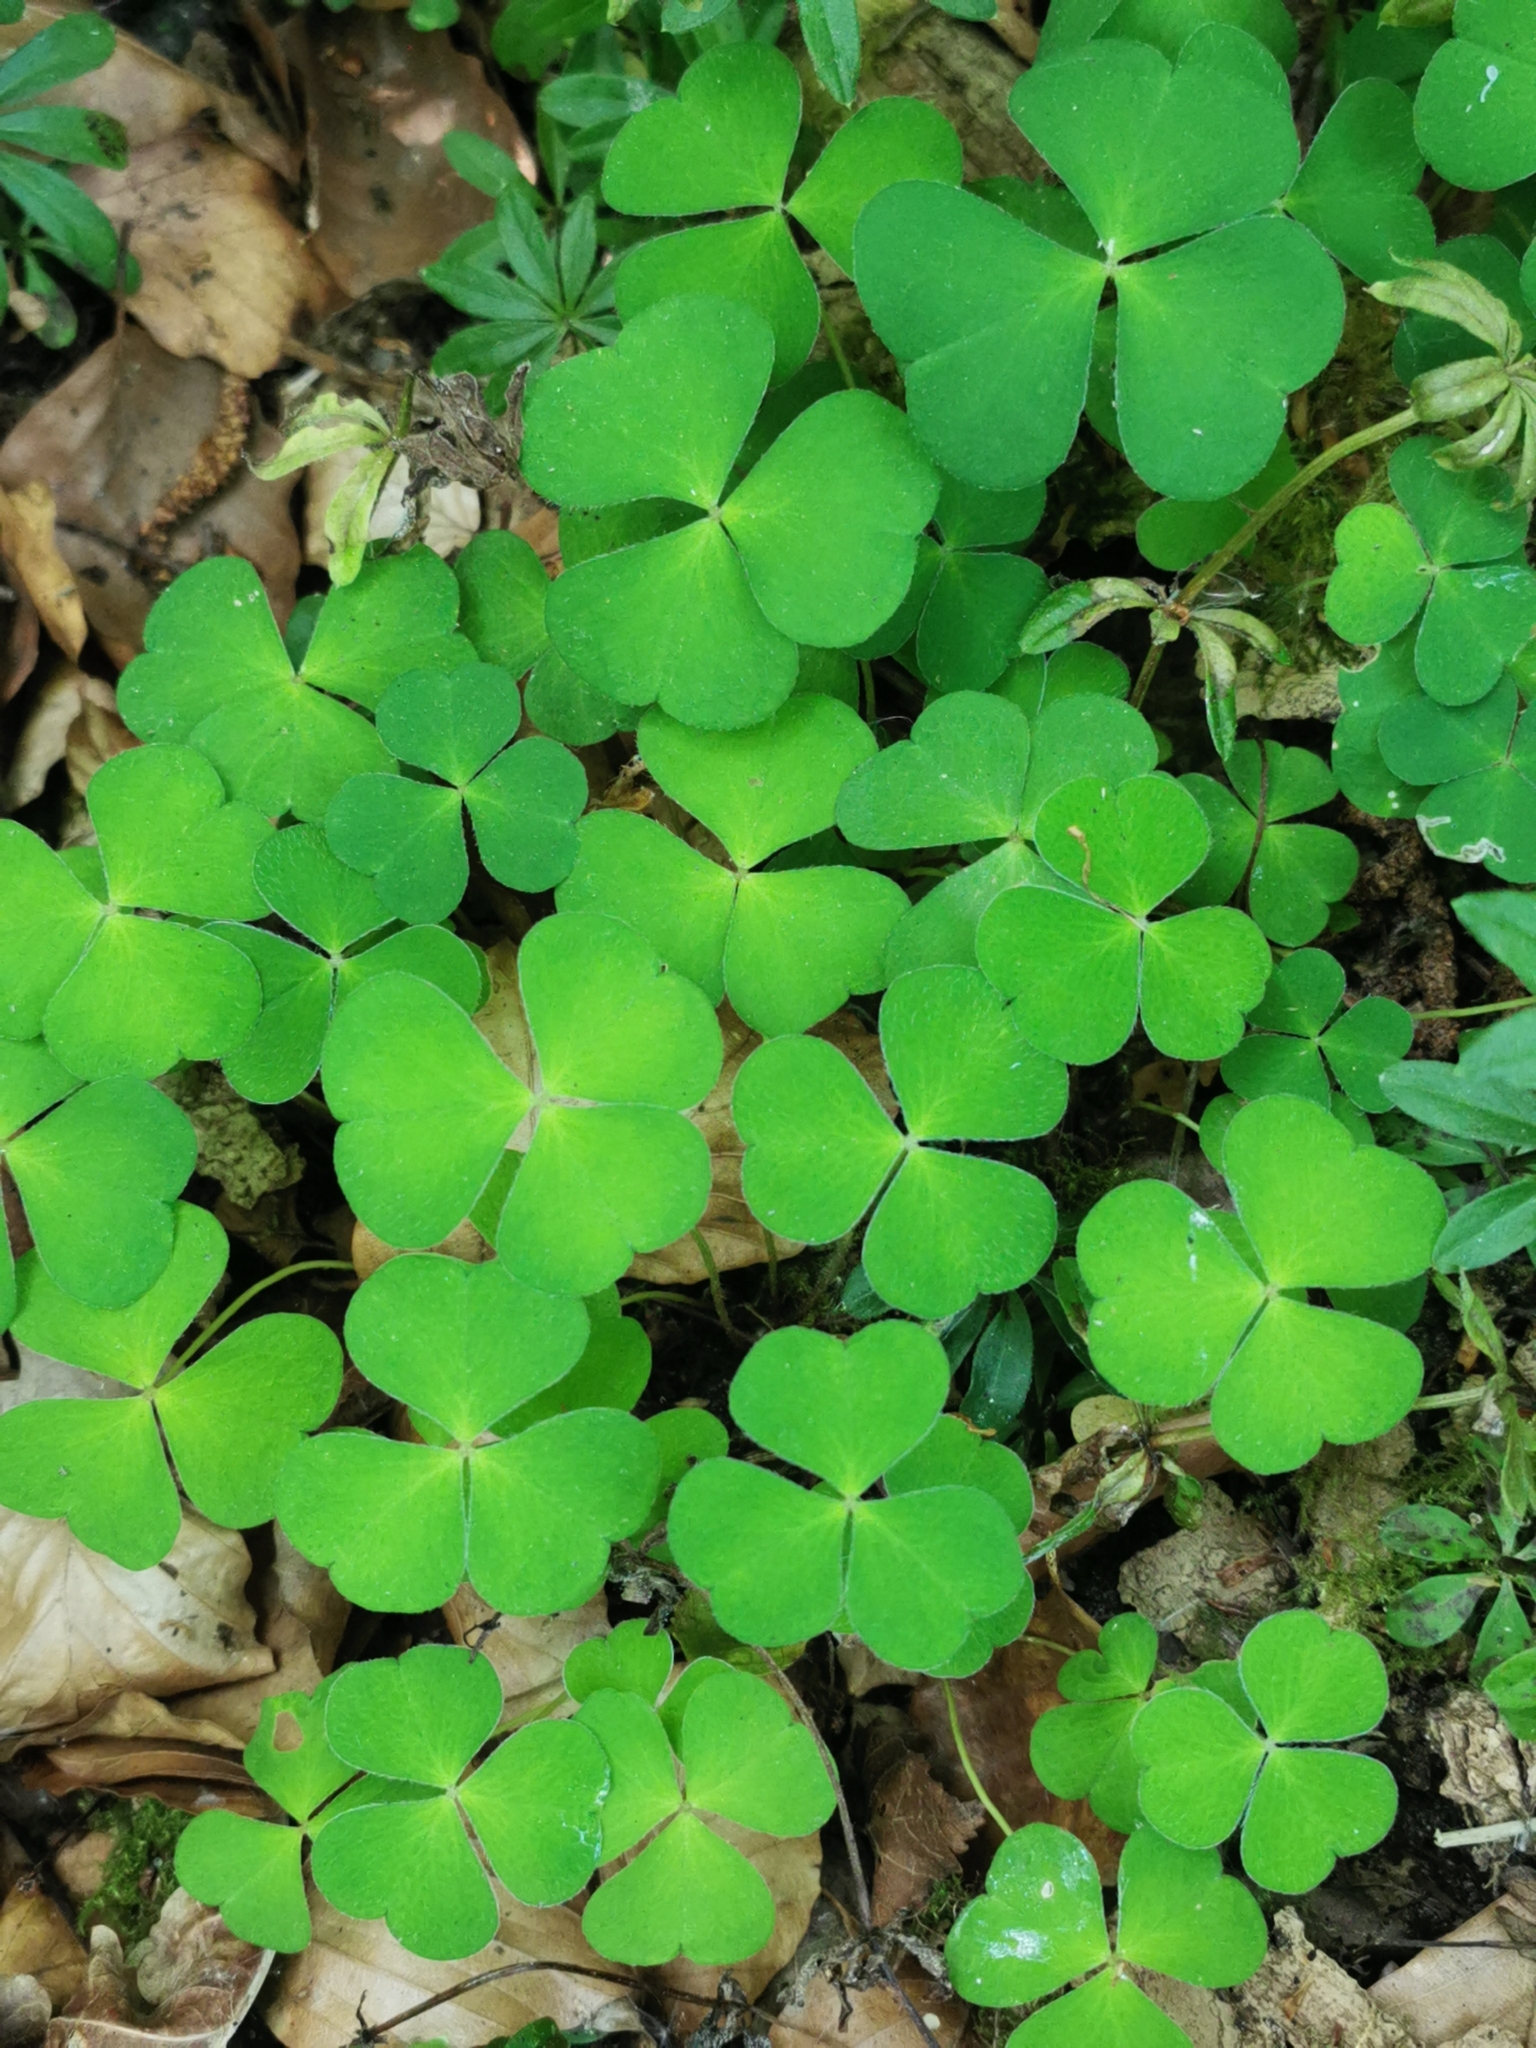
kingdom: Plantae
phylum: Tracheophyta
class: Magnoliopsida
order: Oxalidales
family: Oxalidaceae
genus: Oxalis
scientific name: Oxalis acetosella
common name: Wood-sorrel
